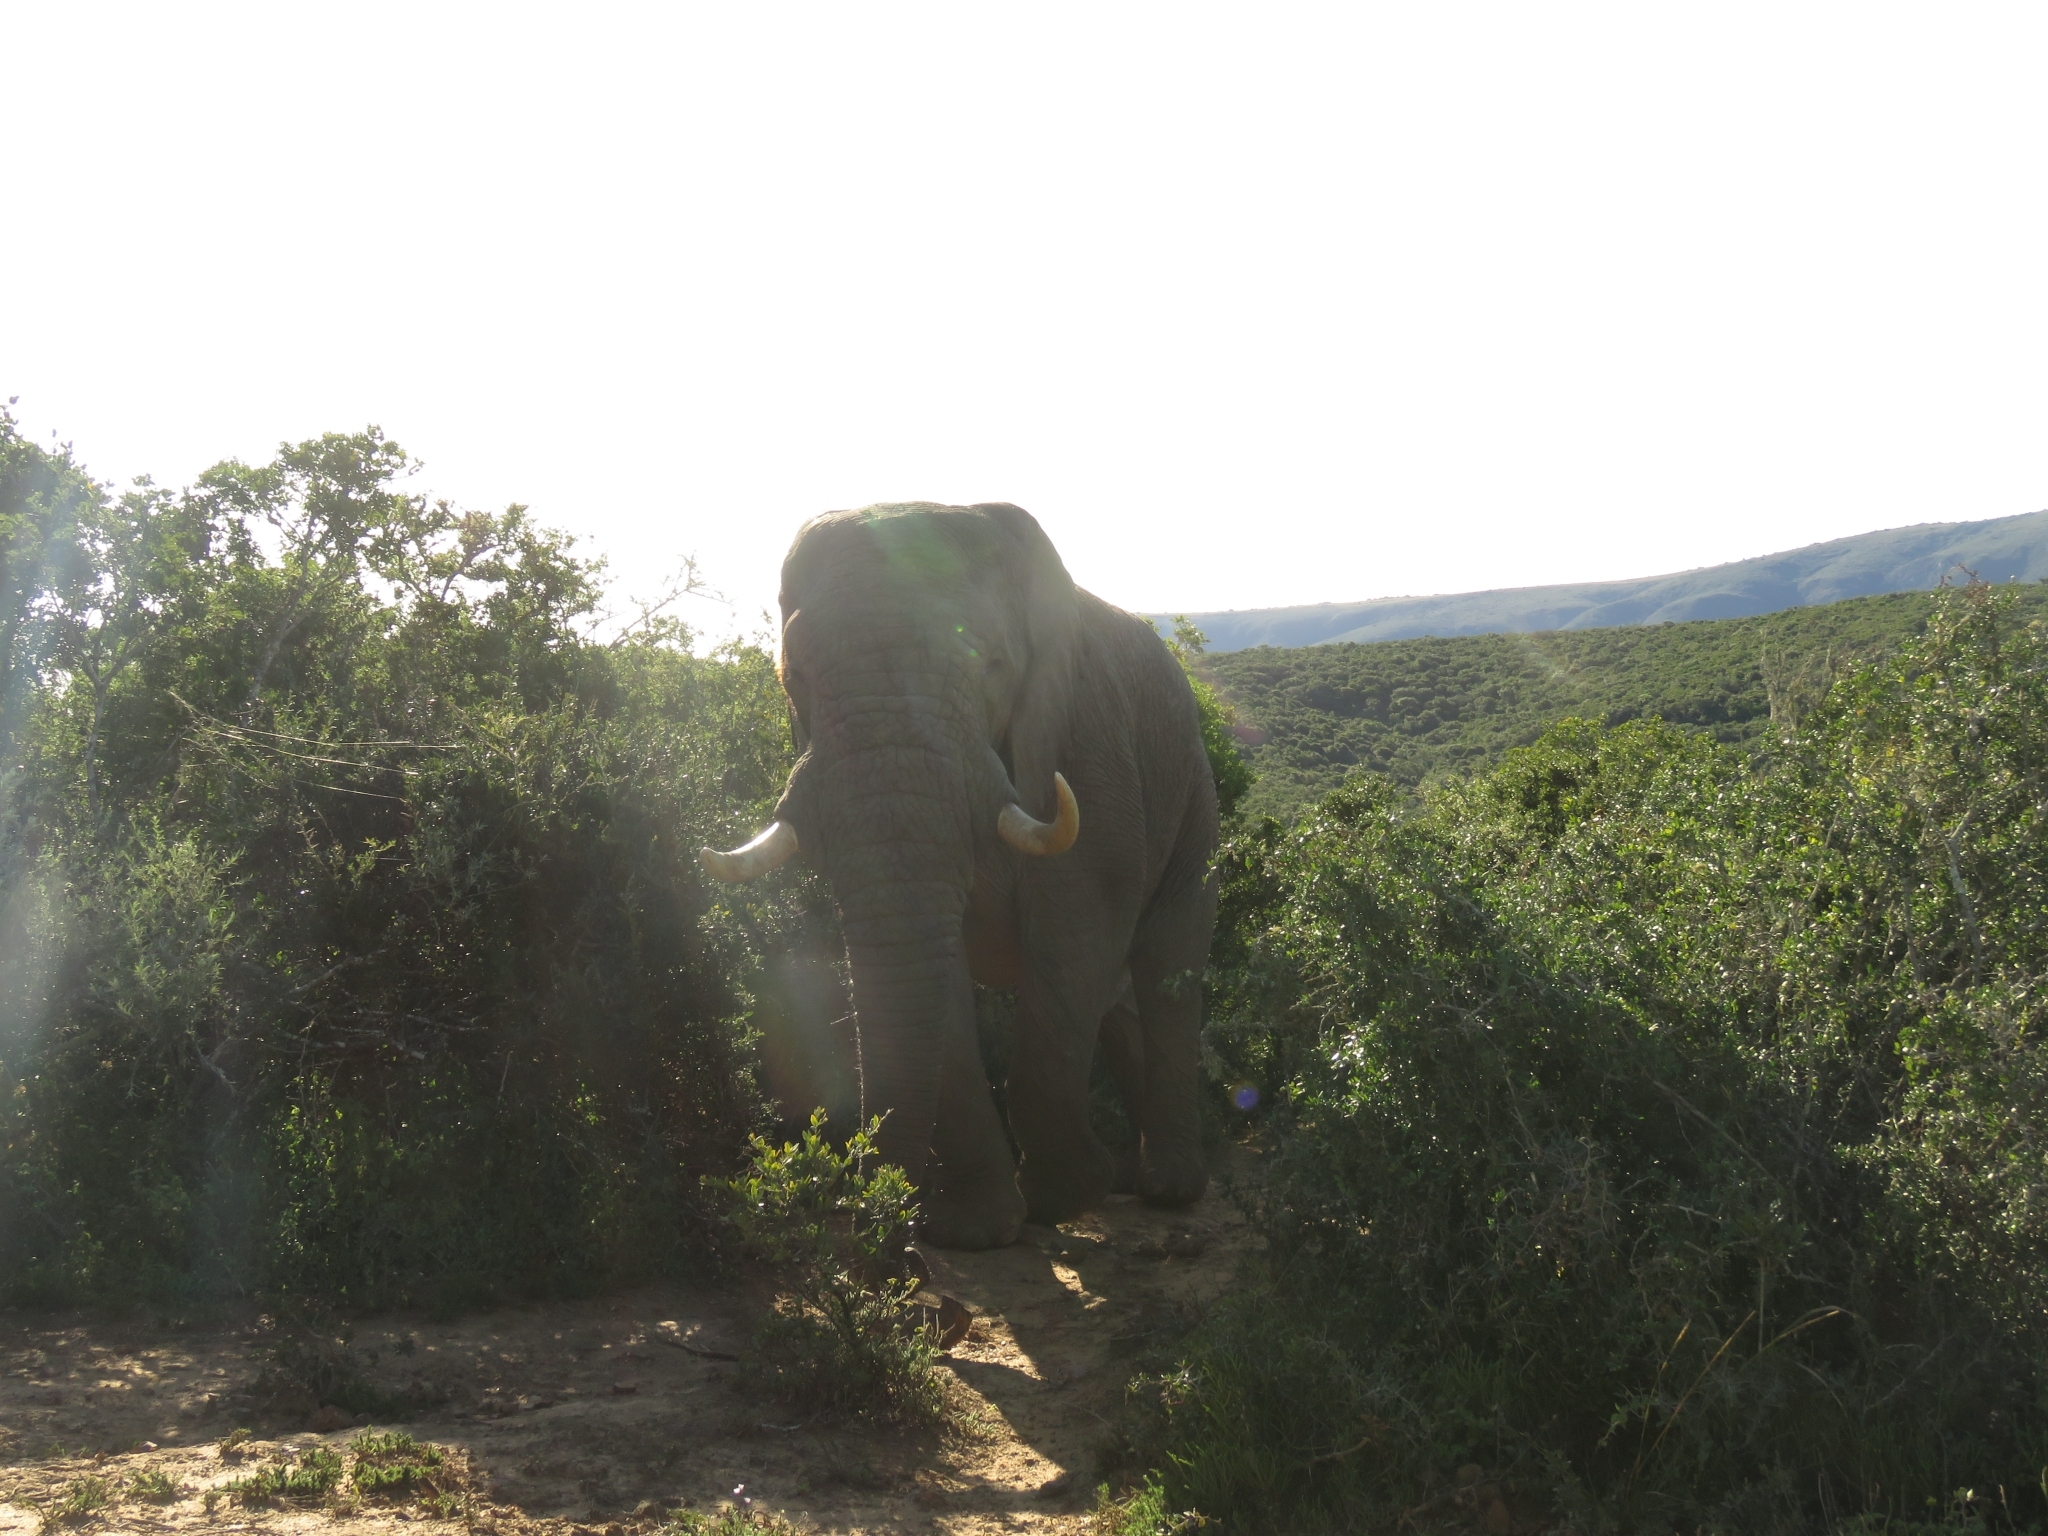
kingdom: Animalia
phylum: Chordata
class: Mammalia
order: Proboscidea
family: Elephantidae
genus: Loxodonta
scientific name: Loxodonta africana
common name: African elephant
